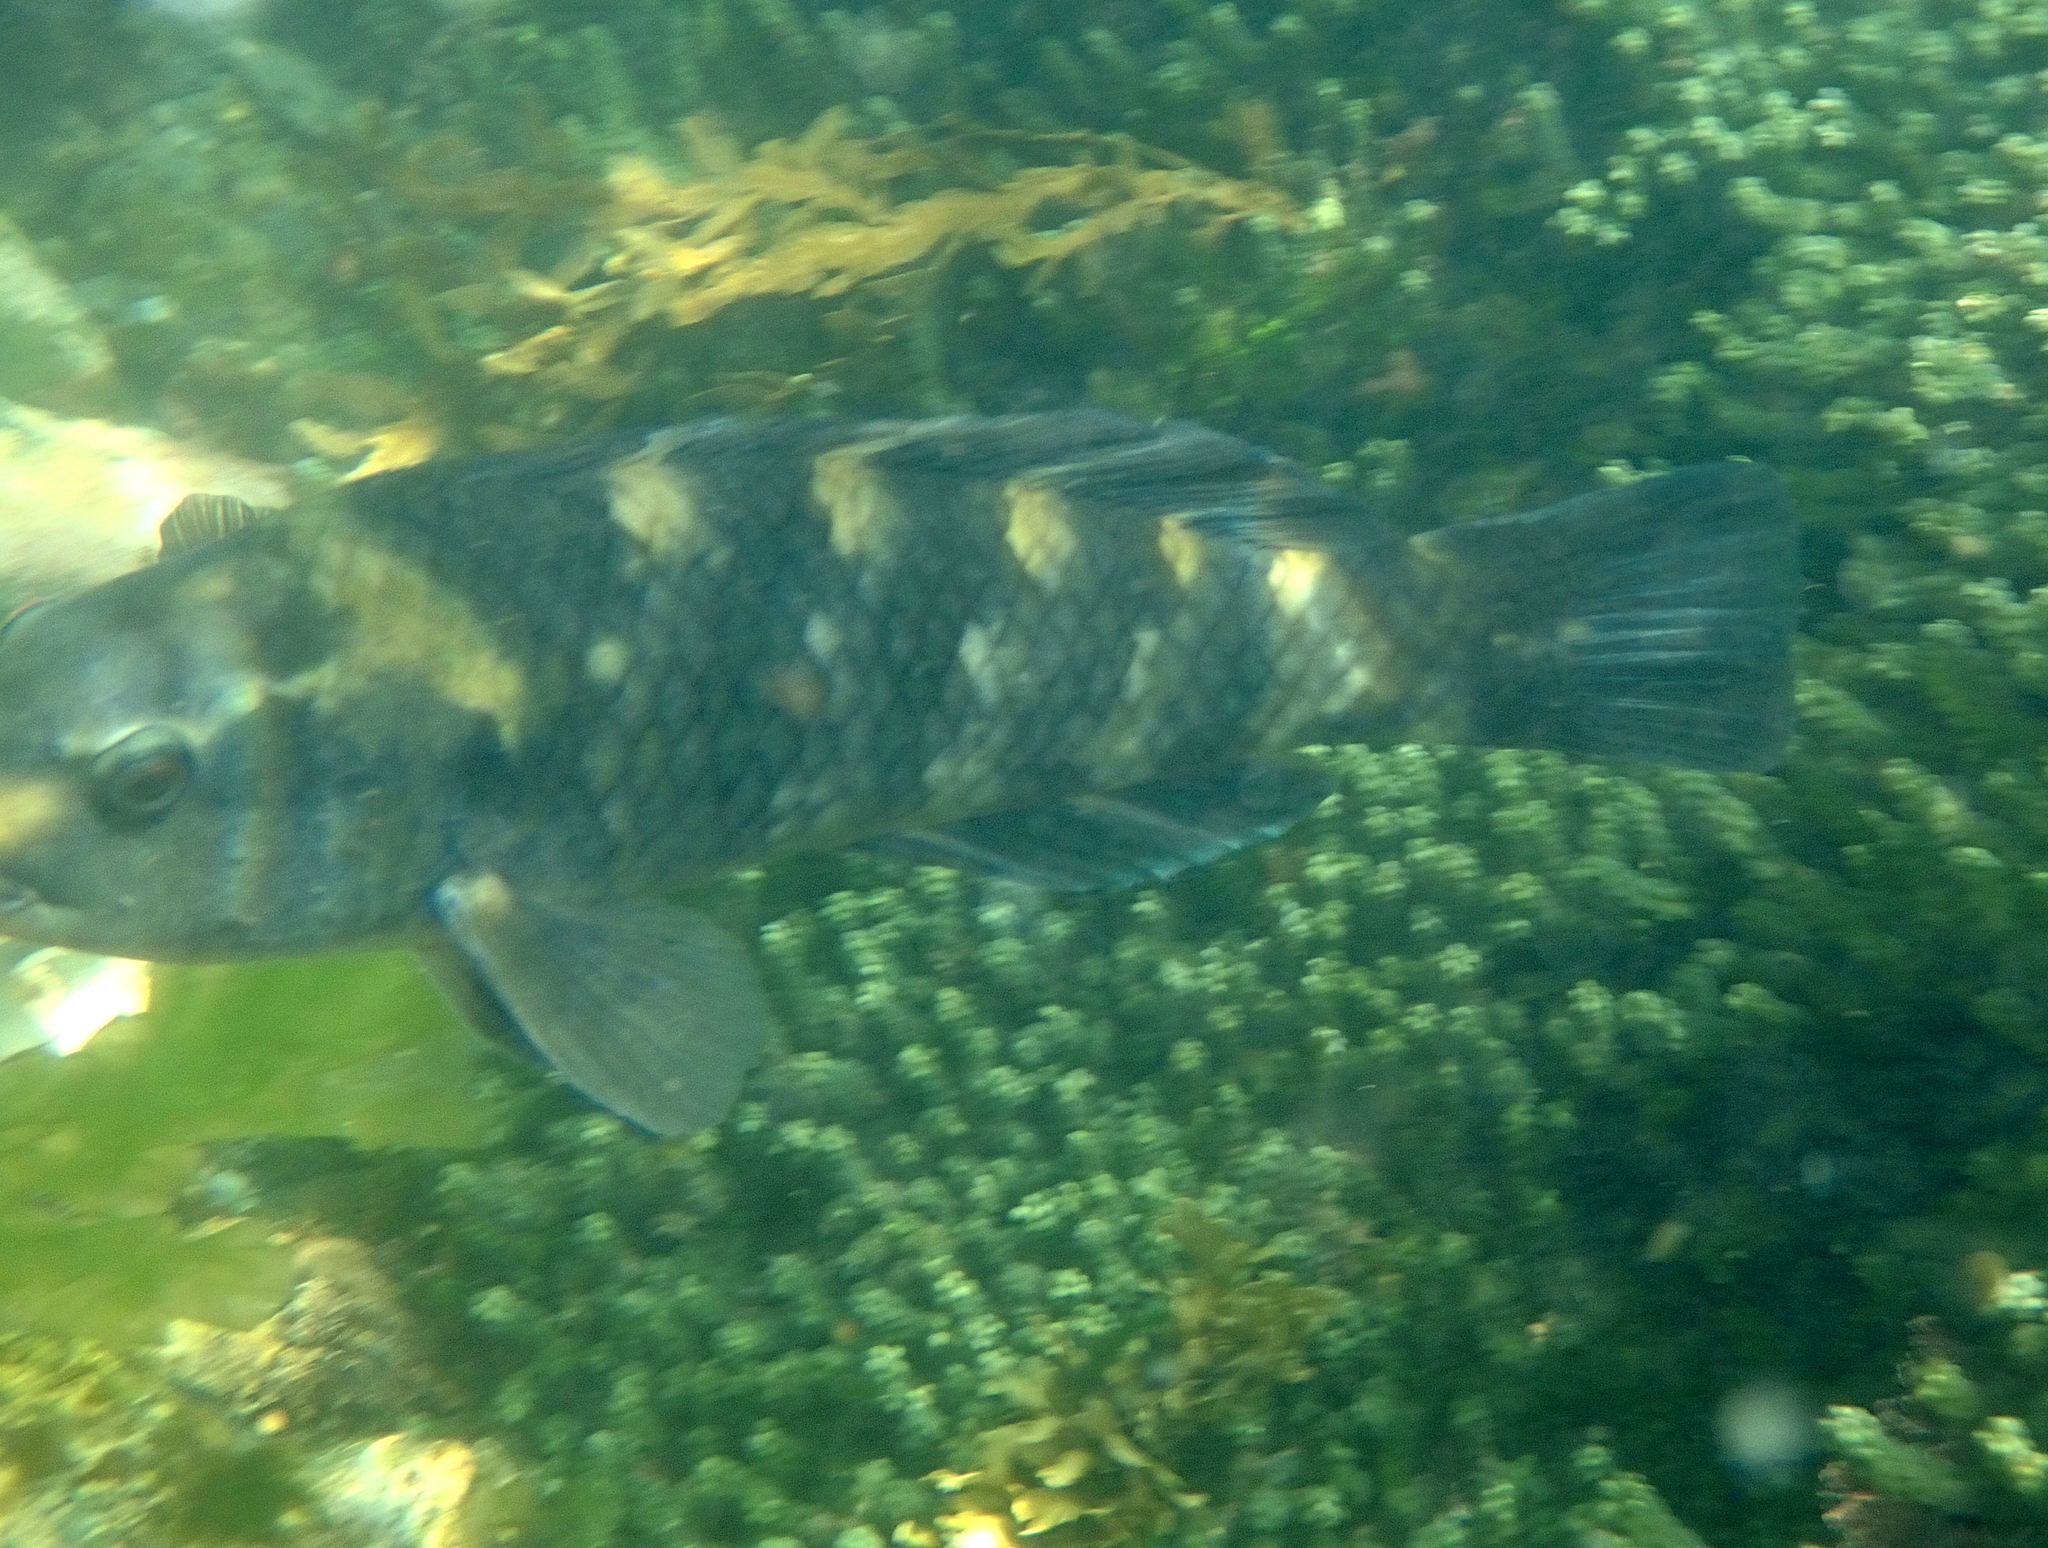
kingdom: Animalia
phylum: Chordata
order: Perciformes
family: Labridae
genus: Notolabrus
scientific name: Notolabrus fucicola
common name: Banded parrotfish
